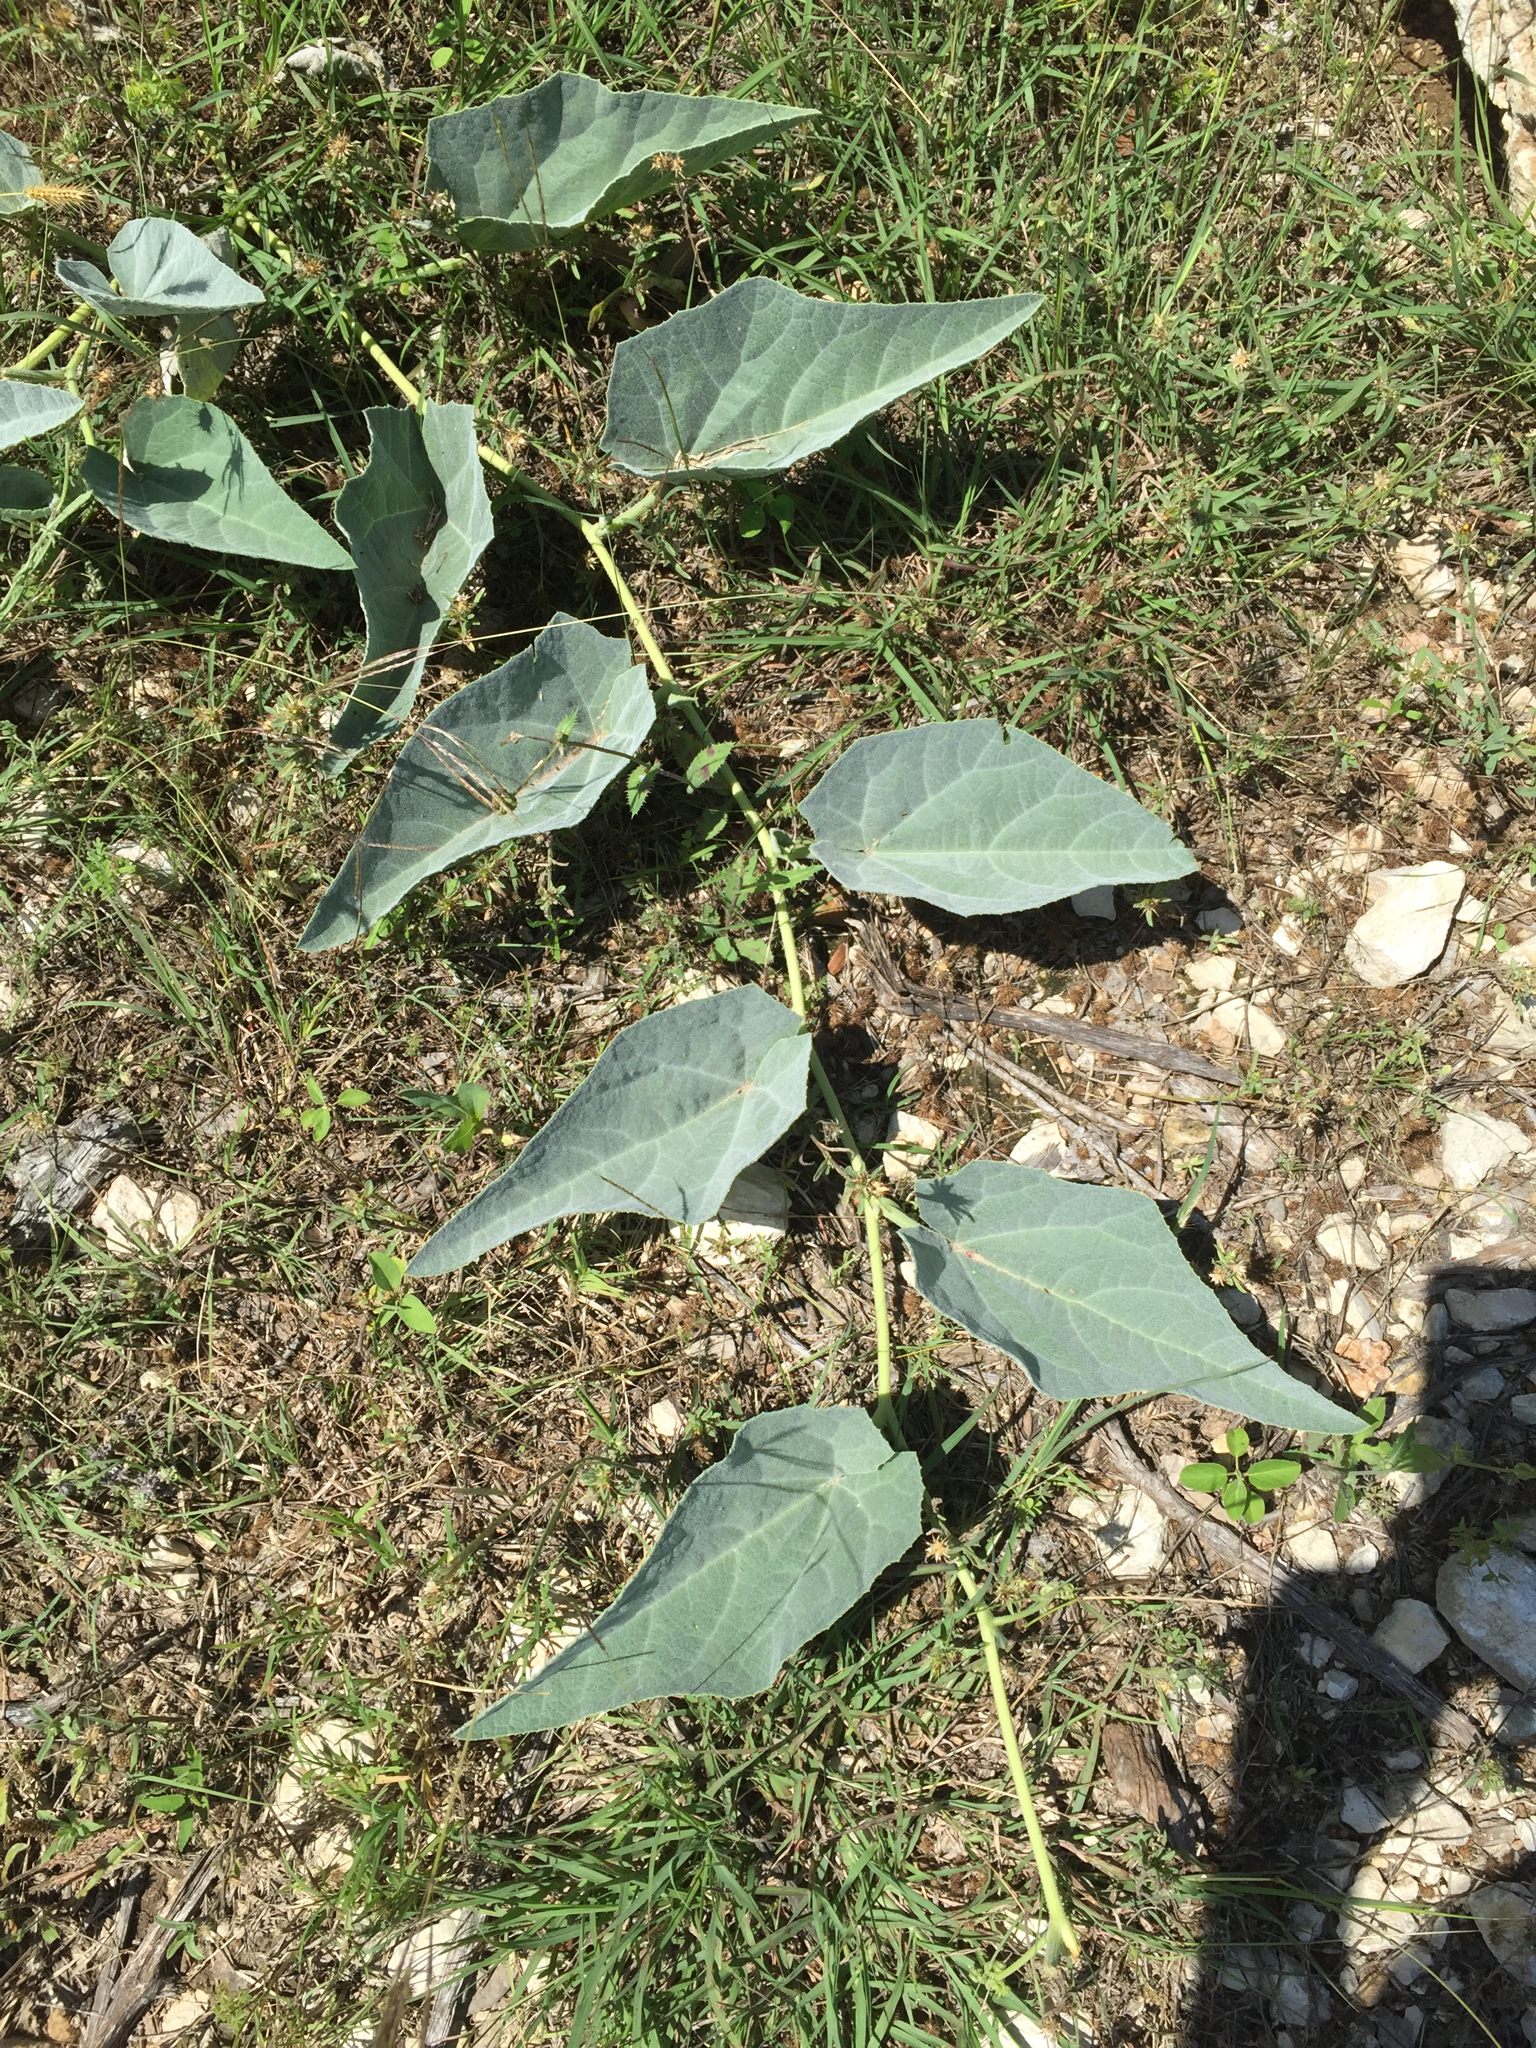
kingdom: Plantae
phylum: Tracheophyta
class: Magnoliopsida
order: Cucurbitales
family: Cucurbitaceae
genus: Cucurbita
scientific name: Cucurbita foetidissima
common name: Buffalo gourd
